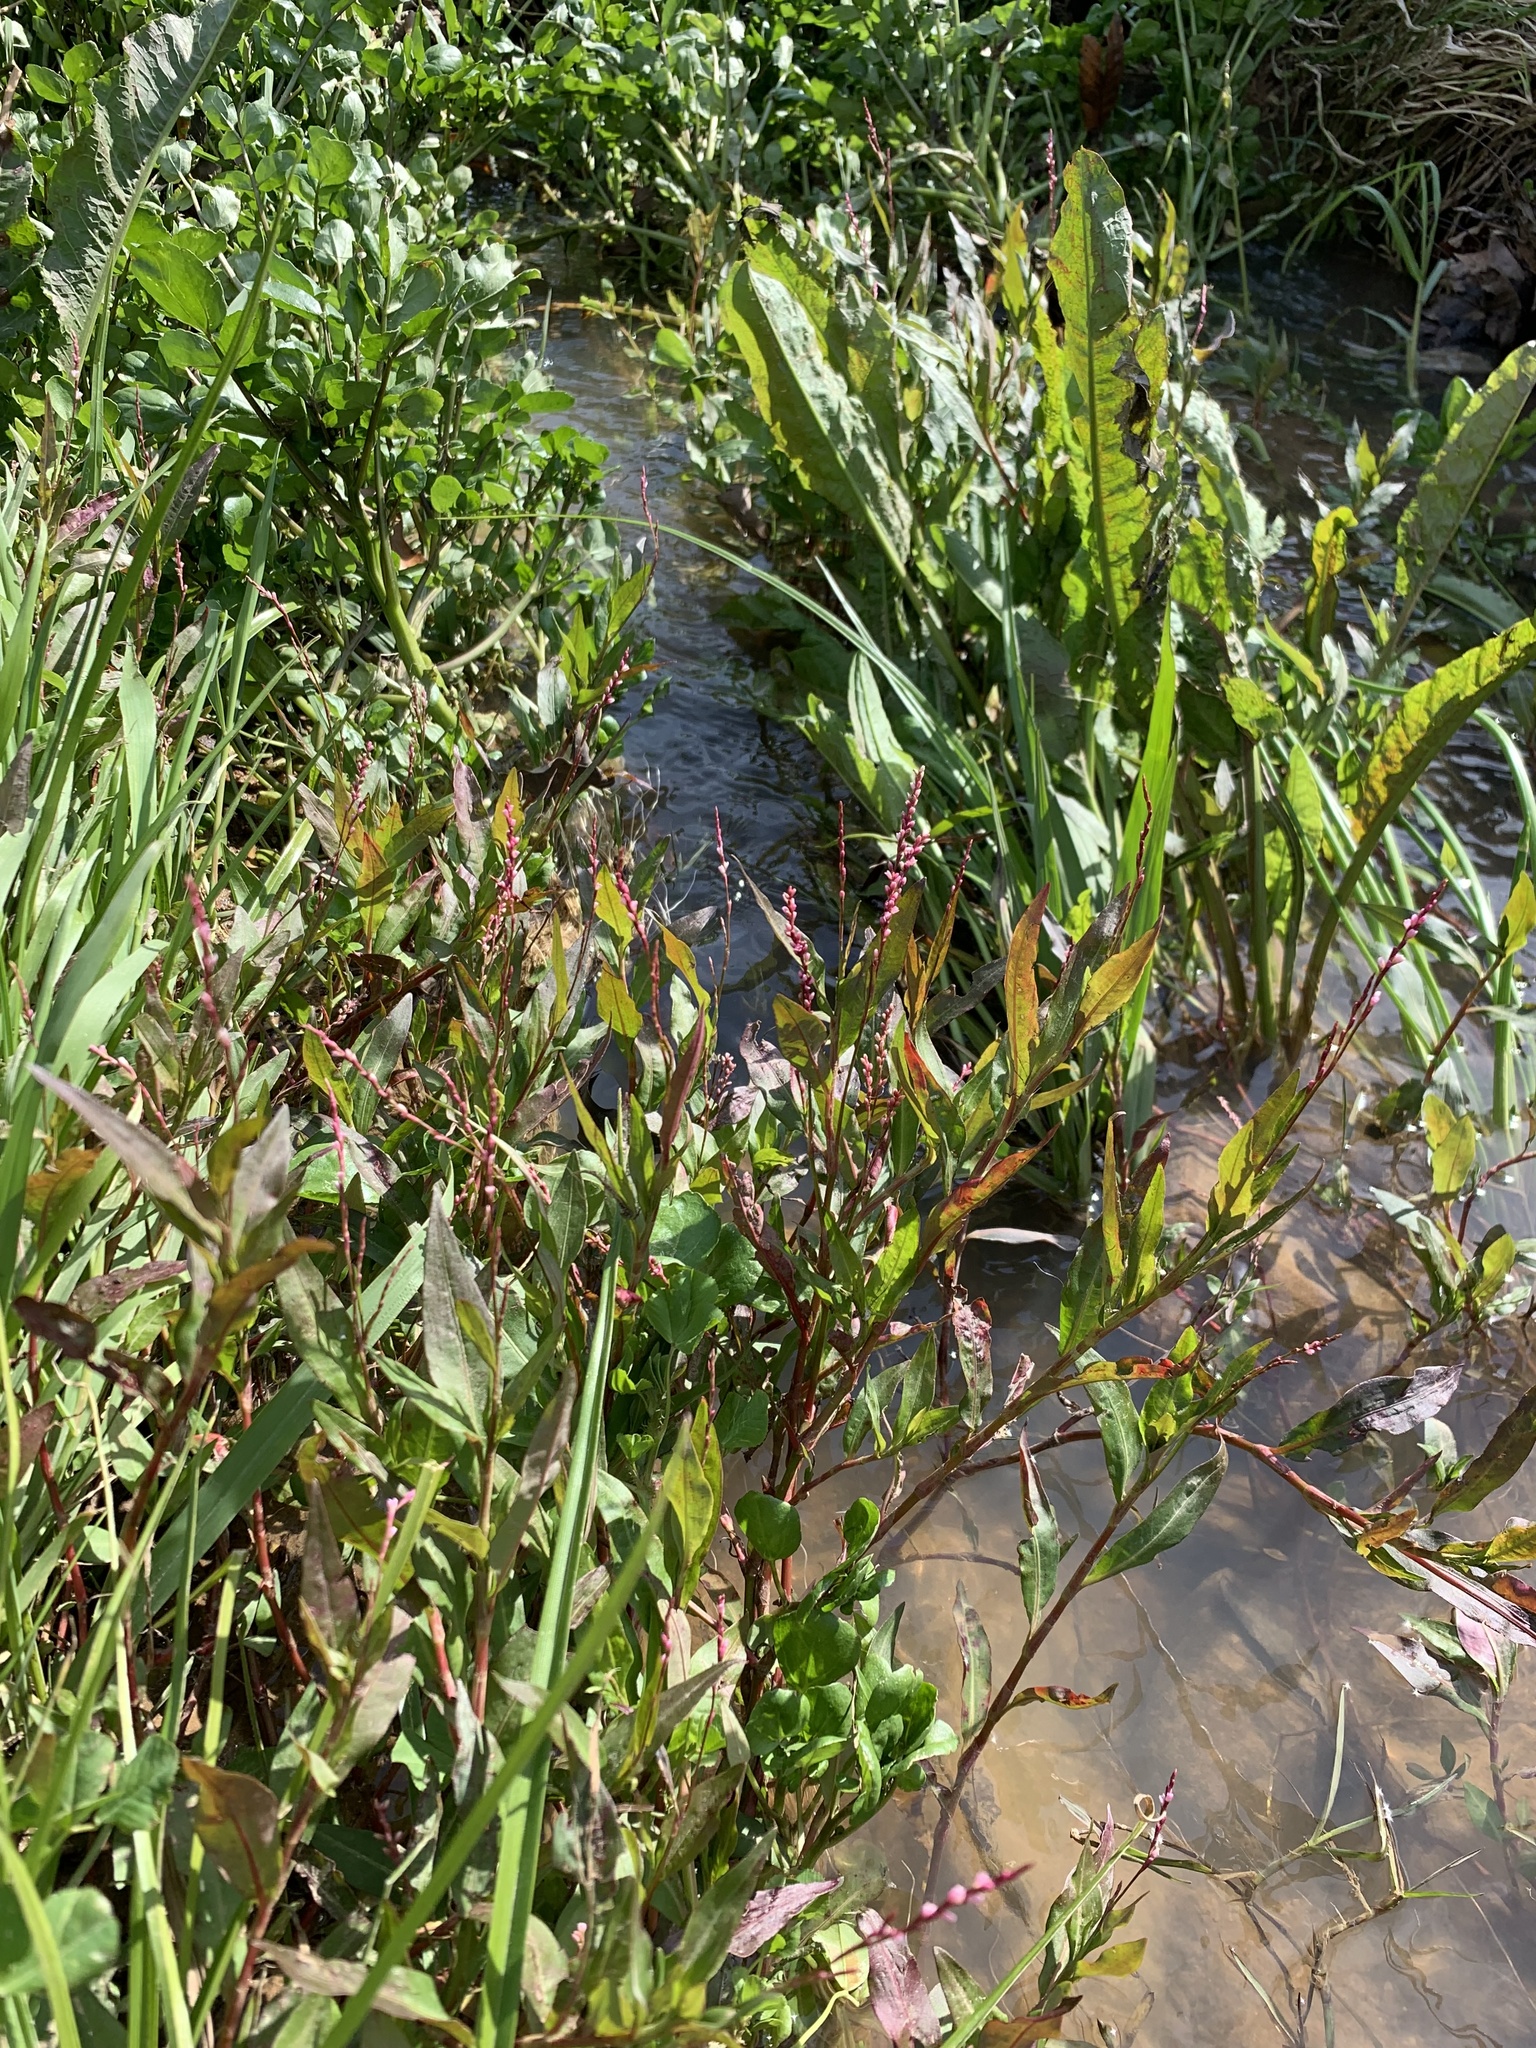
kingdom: Plantae
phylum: Tracheophyta
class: Magnoliopsida
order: Caryophyllales
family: Polygonaceae
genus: Persicaria
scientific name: Persicaria decipiens
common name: Willow-weed
